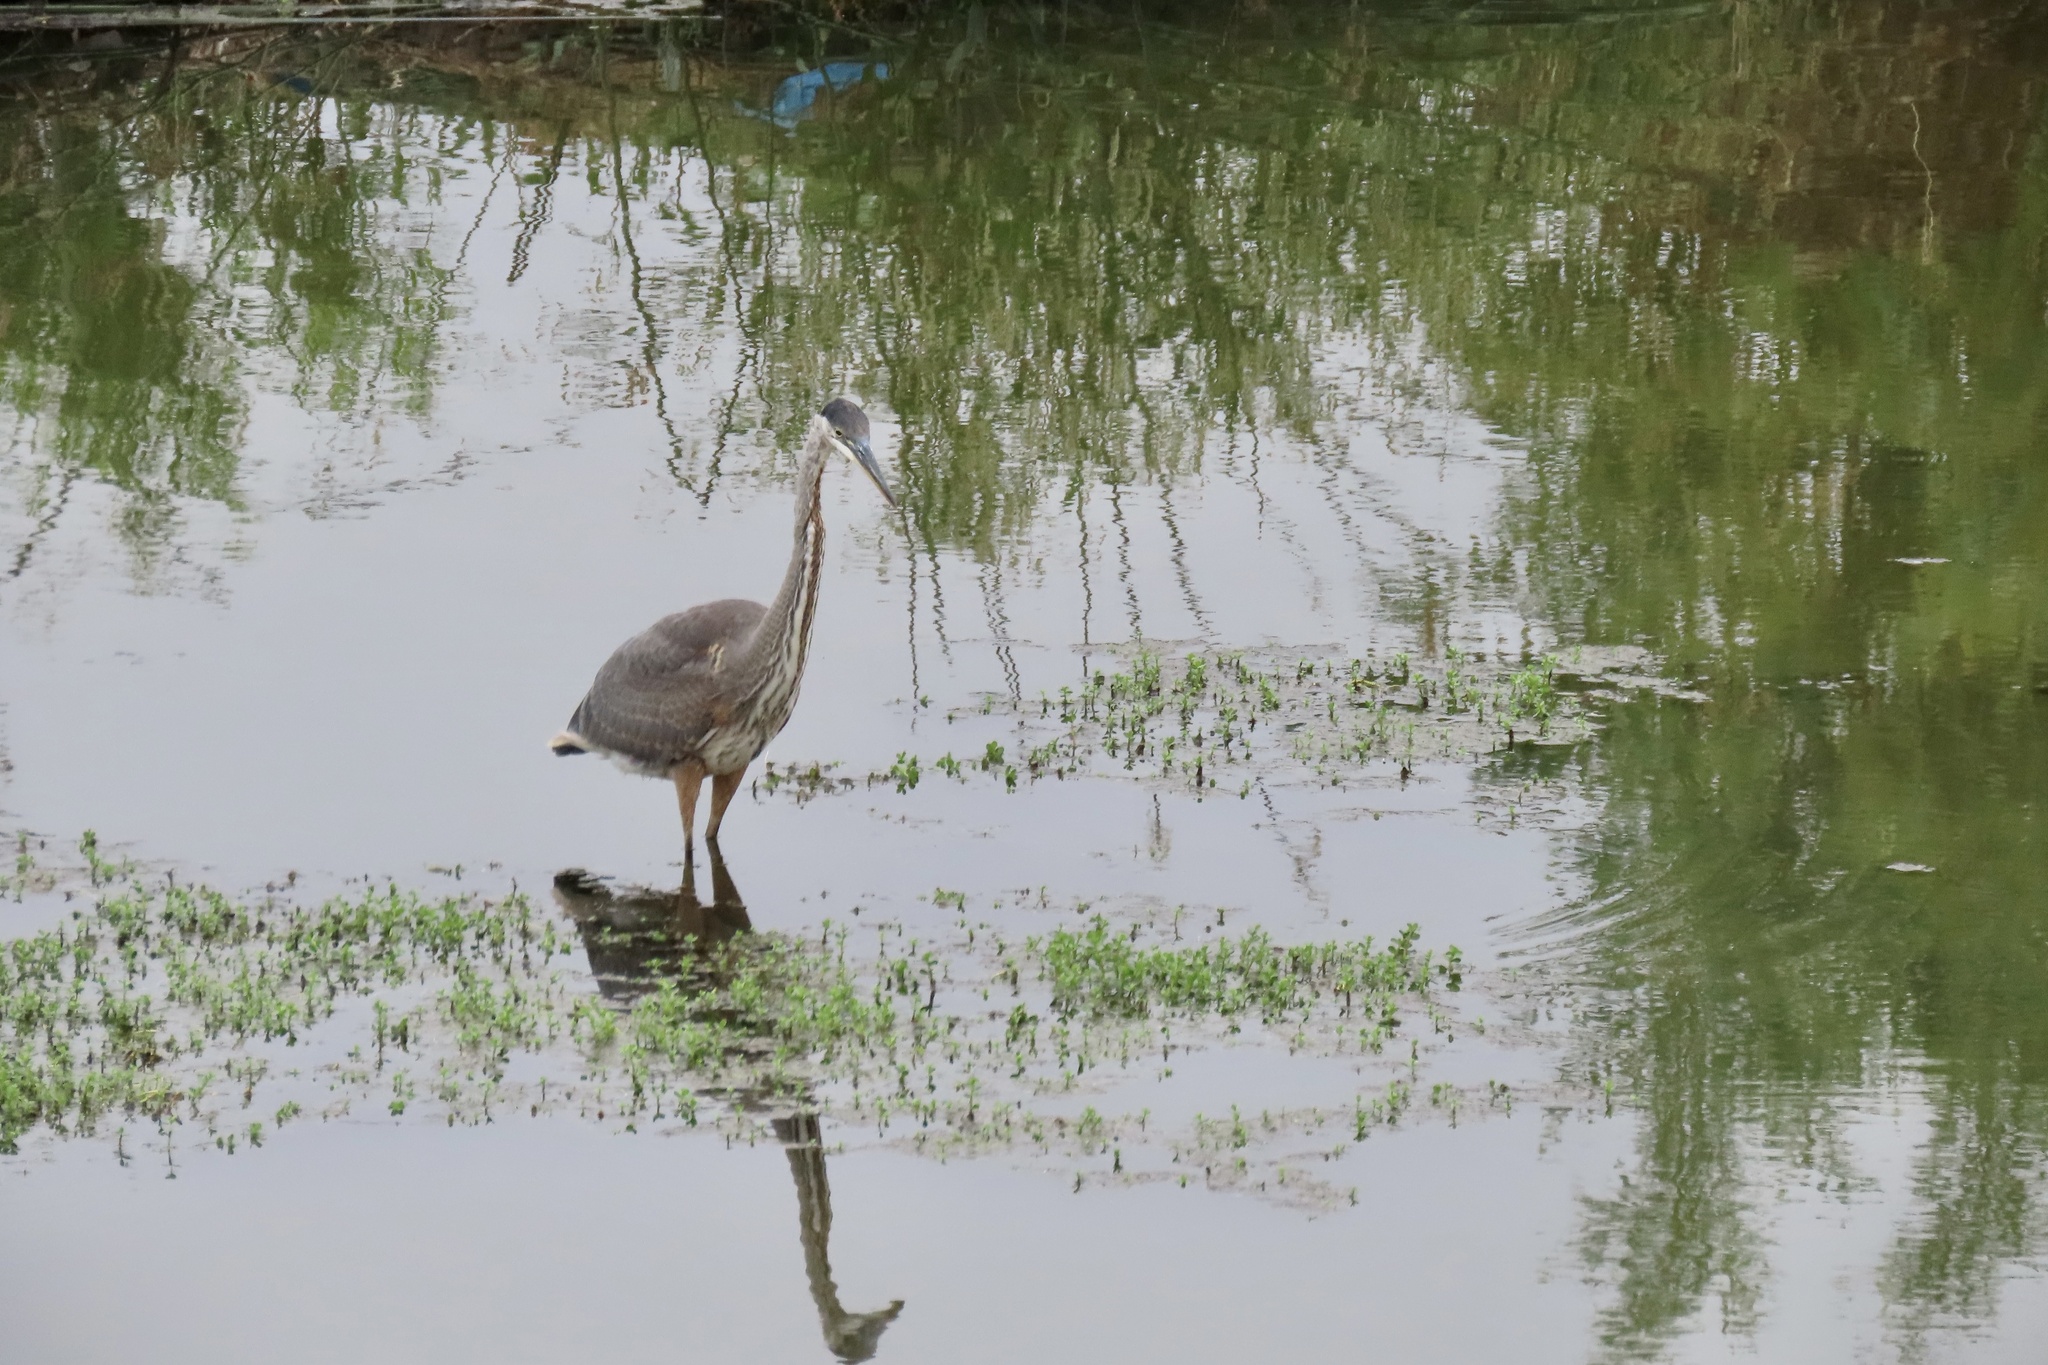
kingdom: Animalia
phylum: Chordata
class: Aves
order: Pelecaniformes
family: Ardeidae
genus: Ardea
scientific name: Ardea herodias
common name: Great blue heron
